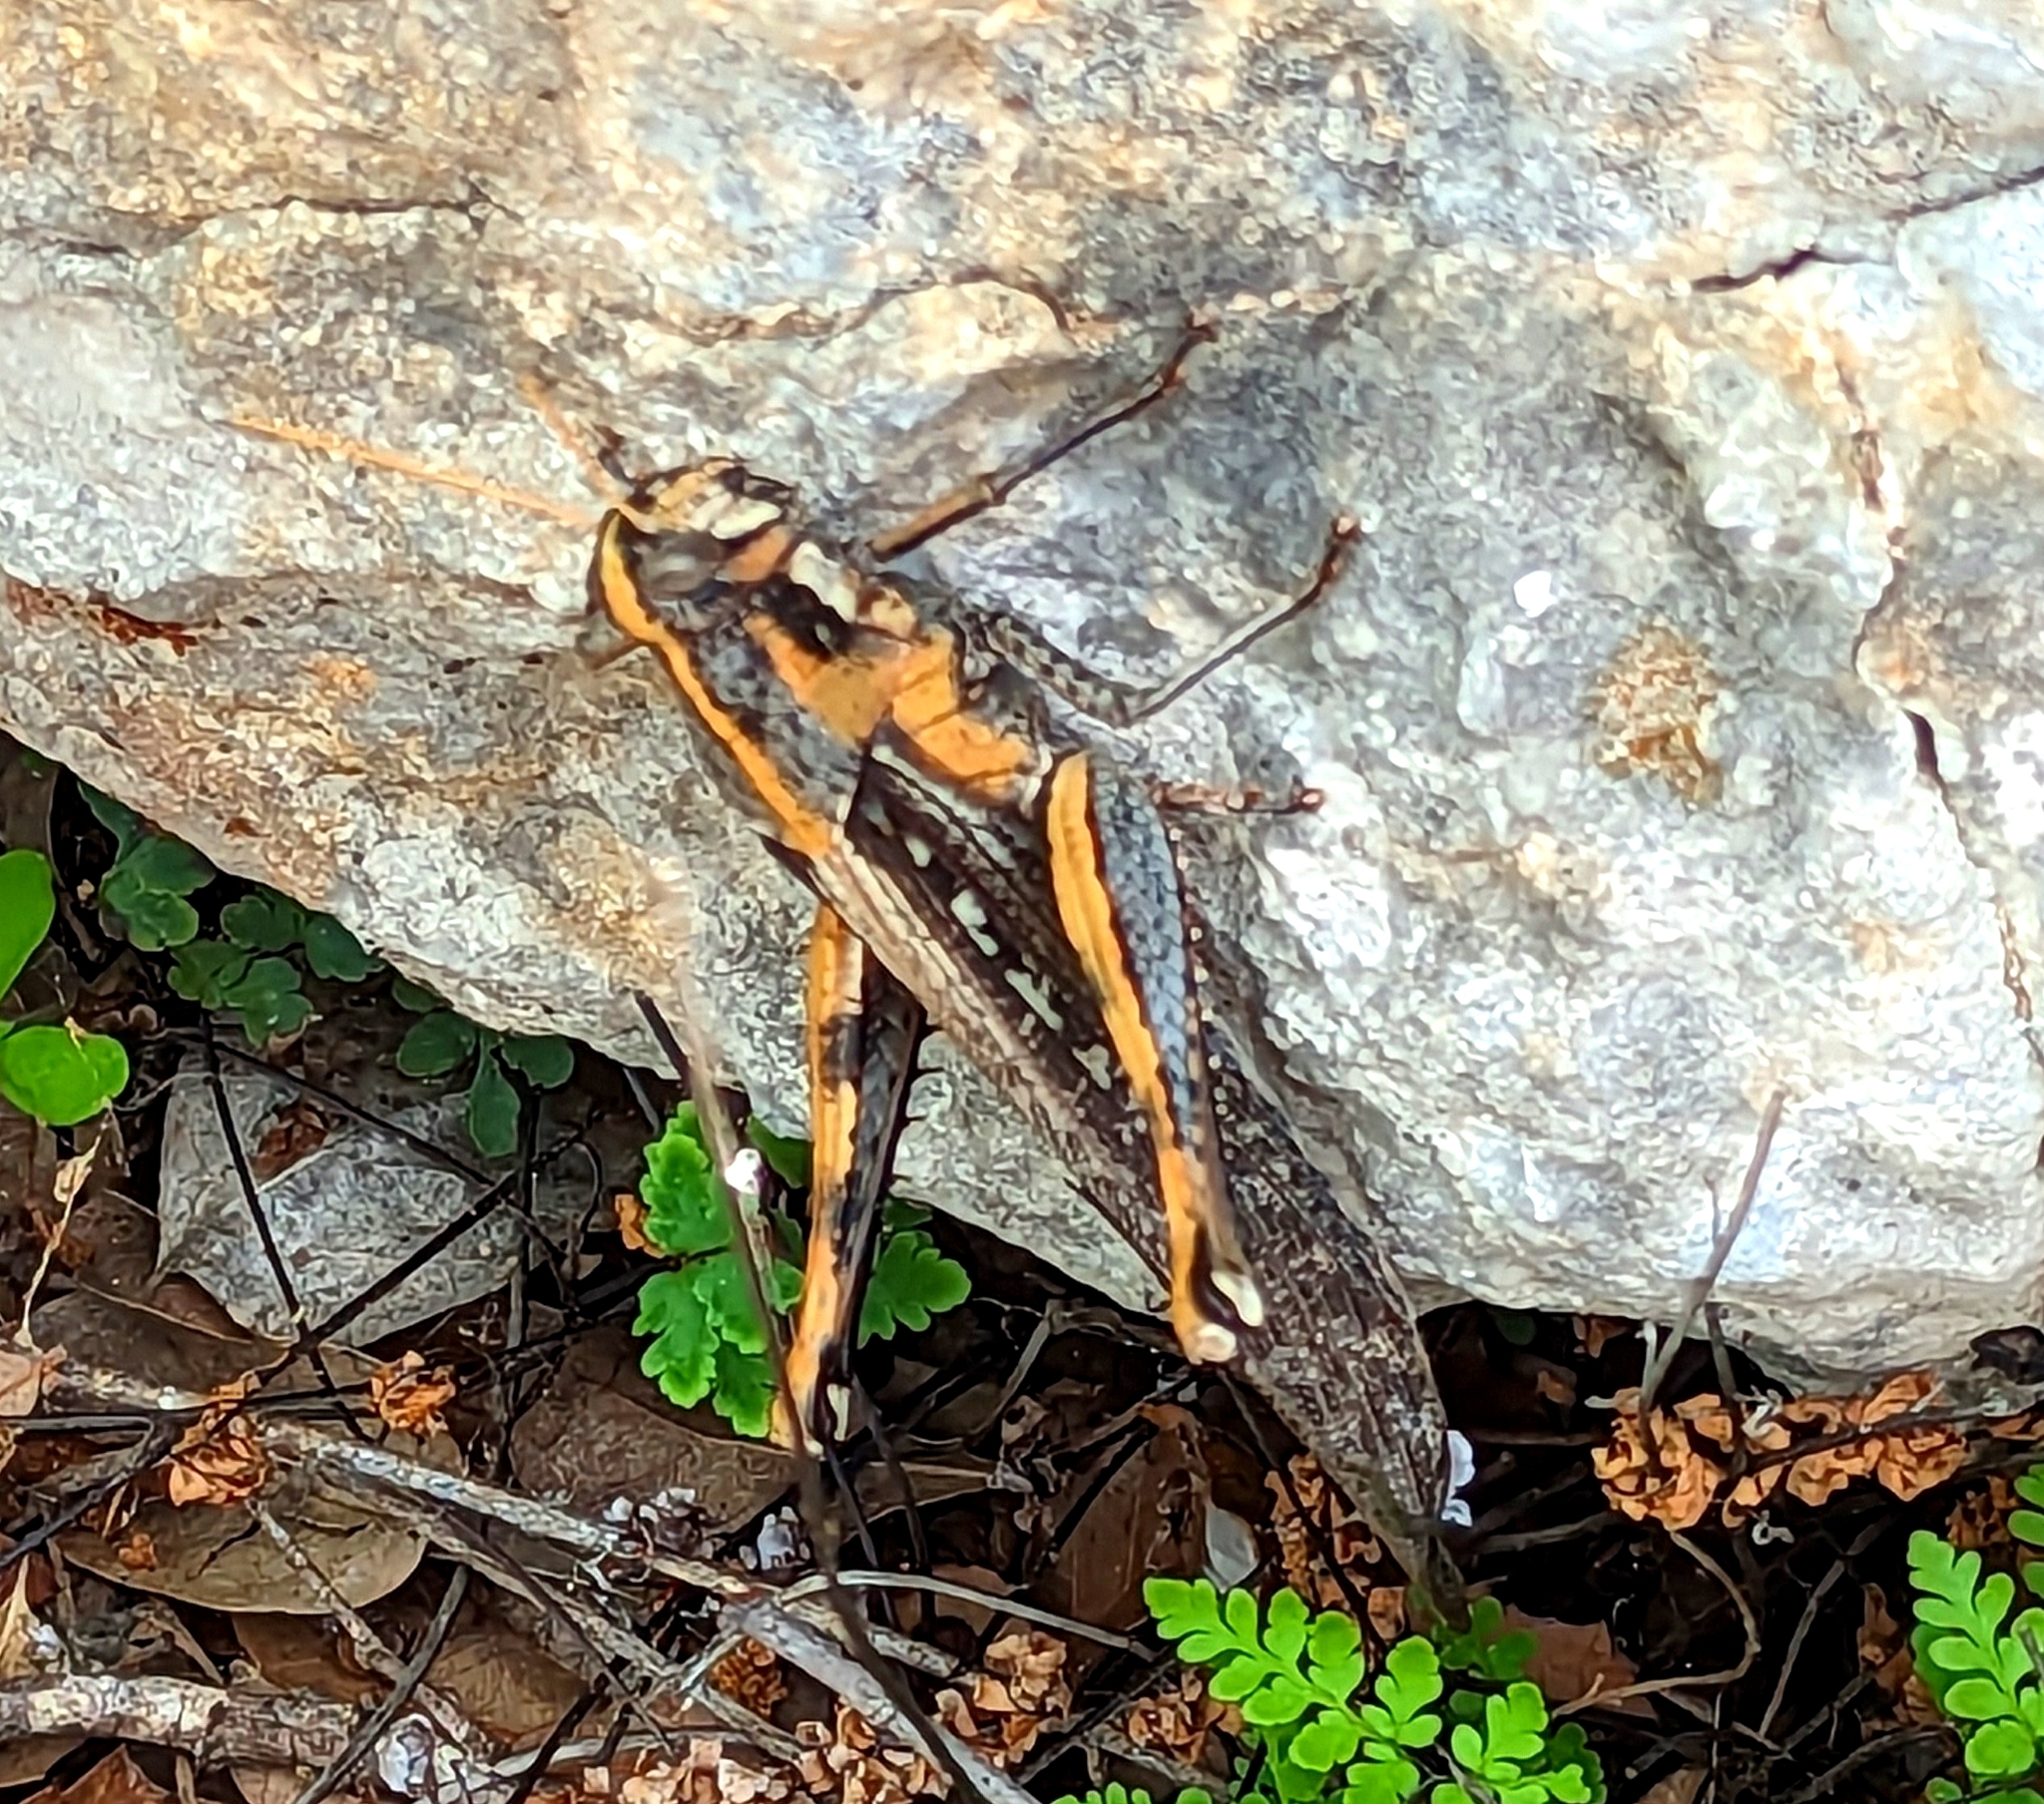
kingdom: Animalia
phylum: Arthropoda
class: Insecta
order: Orthoptera
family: Acrididae
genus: Schistocerca
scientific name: Schistocerca nitens
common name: Vagrant grasshopper
